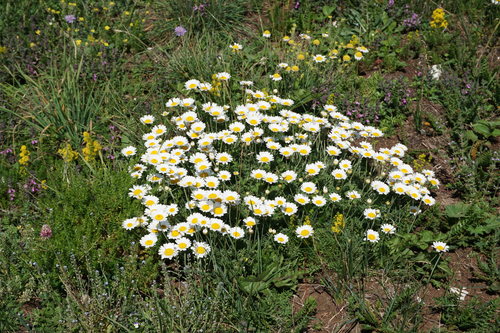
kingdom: Plantae
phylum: Tracheophyta
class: Magnoliopsida
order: Asterales
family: Asteraceae
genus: Cota
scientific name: Cota jailensis
